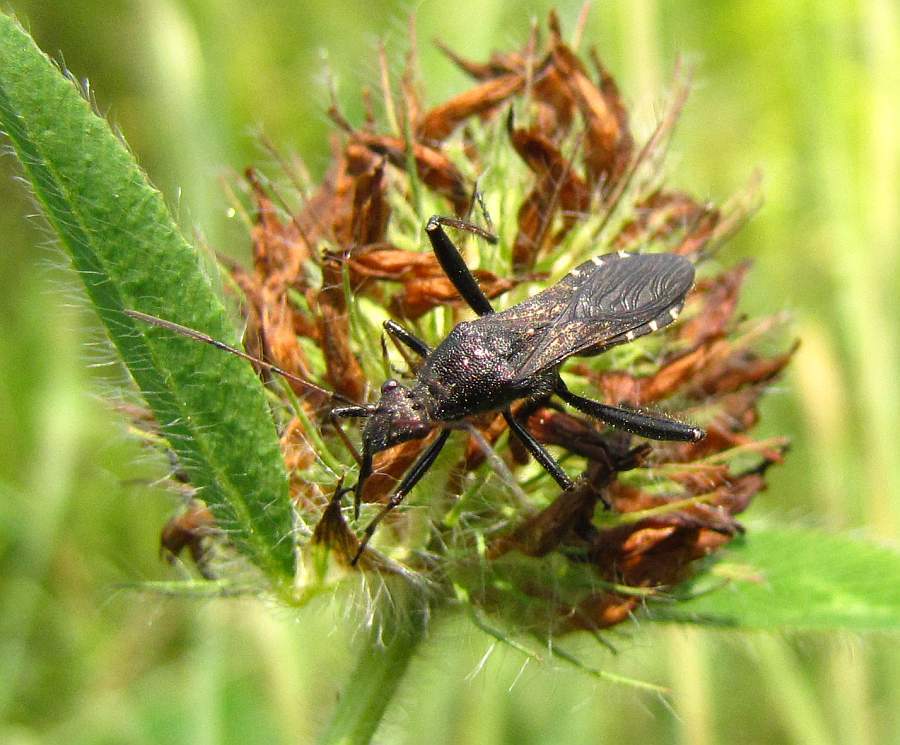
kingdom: Animalia
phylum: Arthropoda
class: Insecta
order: Hemiptera
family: Alydidae
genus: Alydus
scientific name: Alydus eurinus
